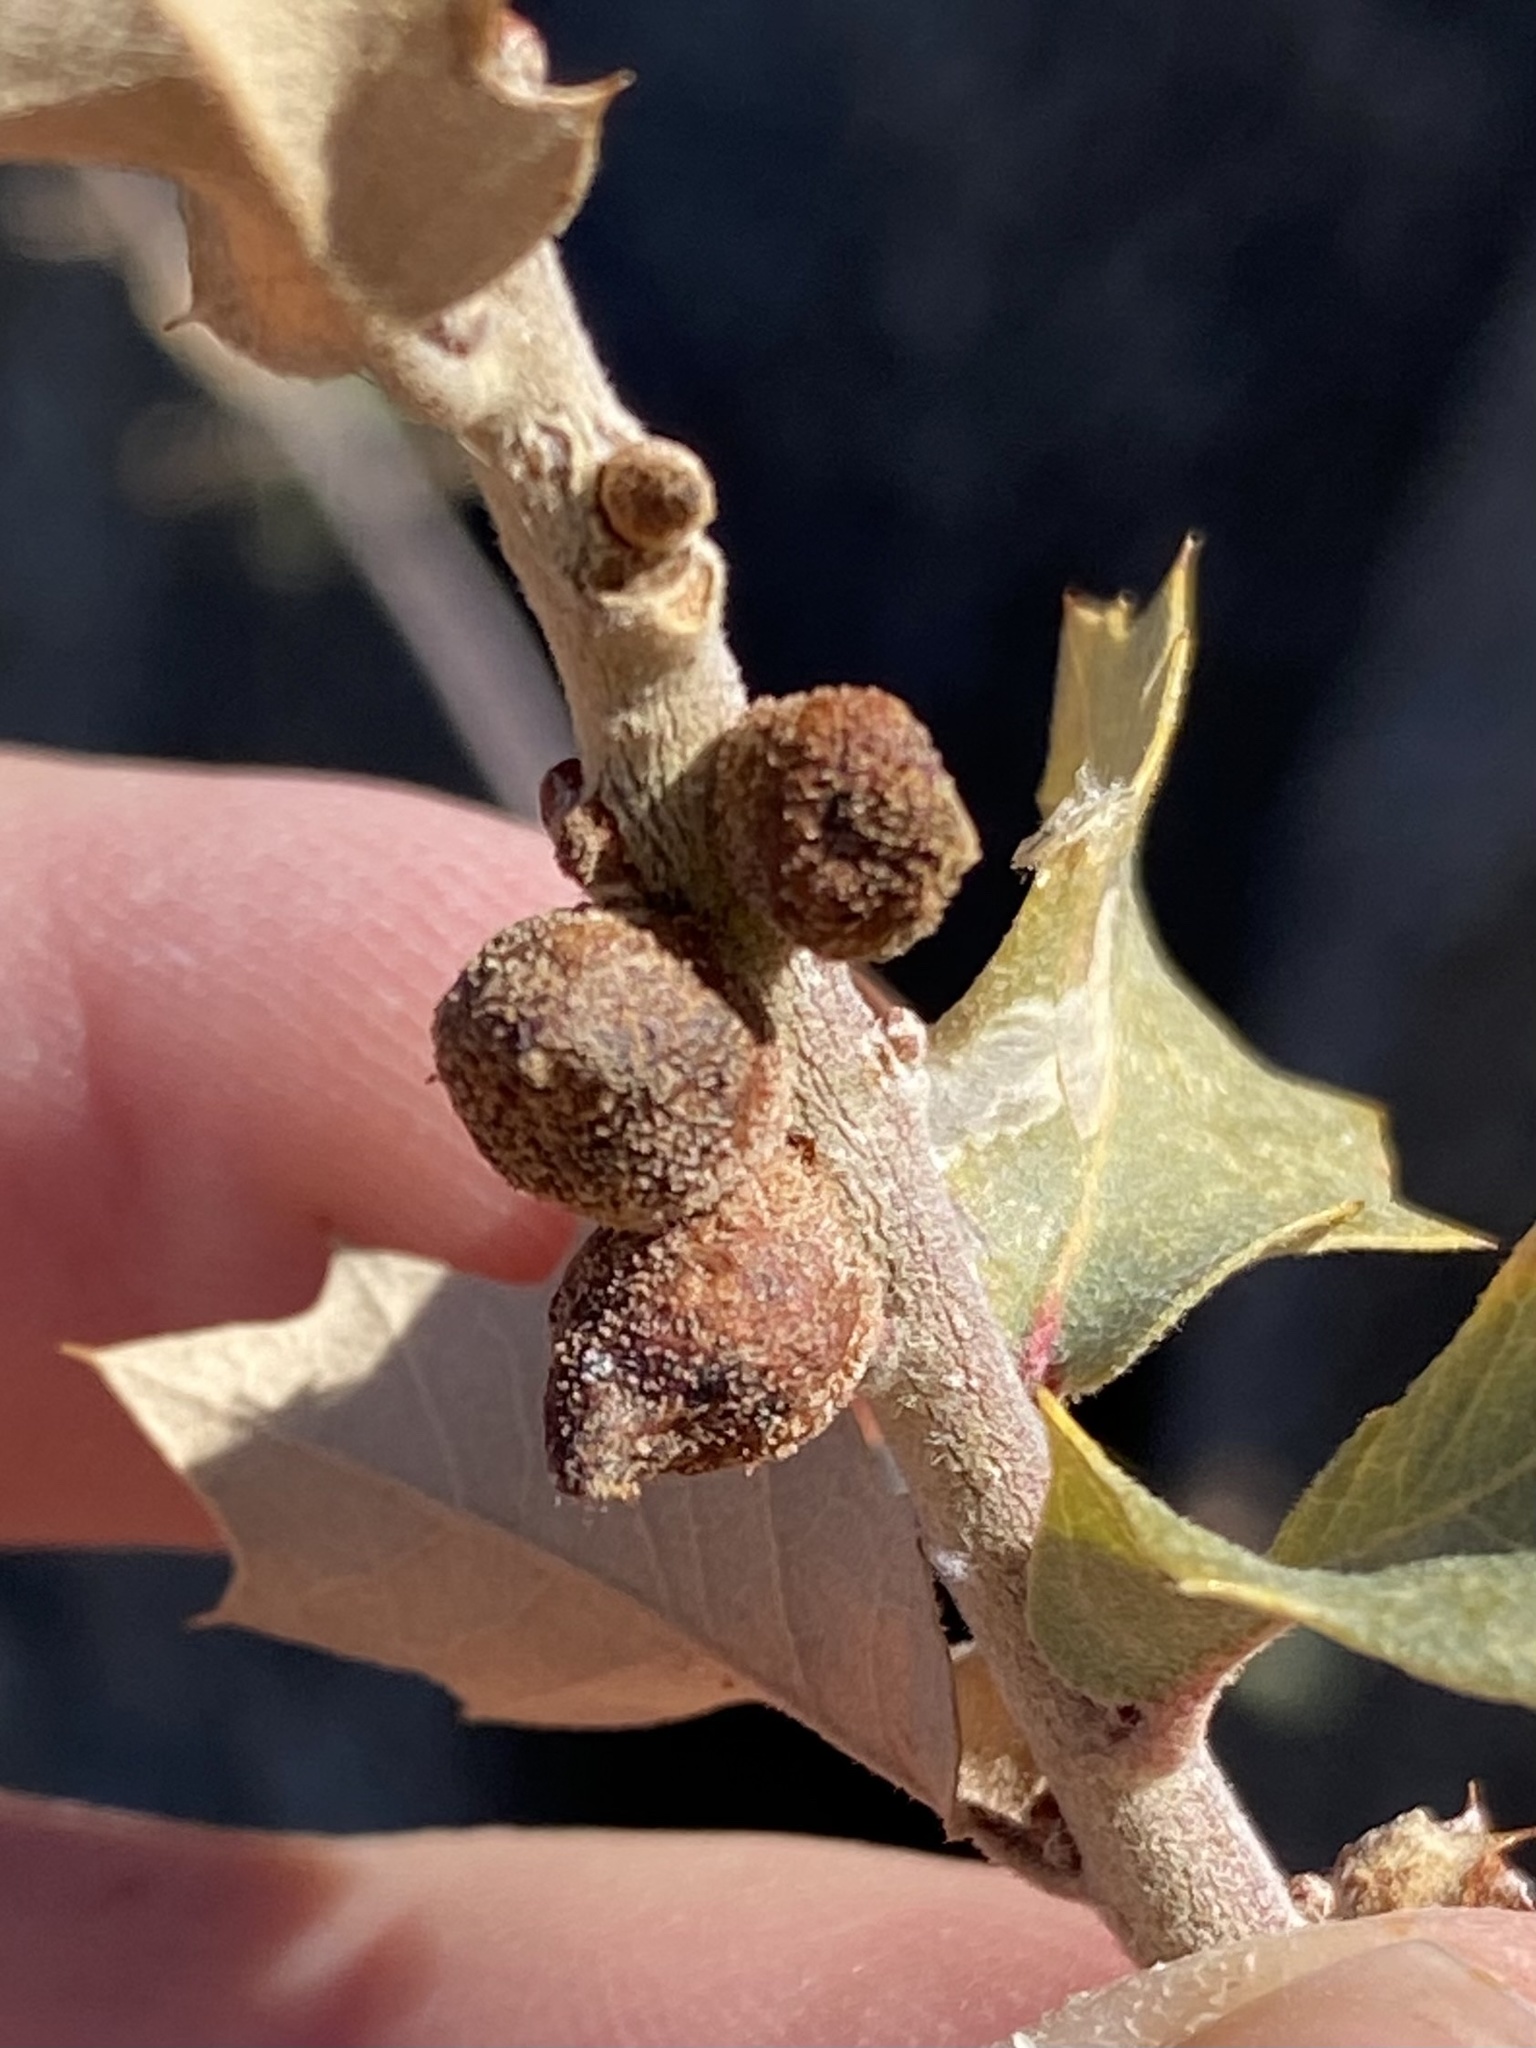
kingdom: Animalia
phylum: Arthropoda
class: Insecta
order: Hymenoptera
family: Cynipidae
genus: Disholcaspis
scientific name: Disholcaspis
